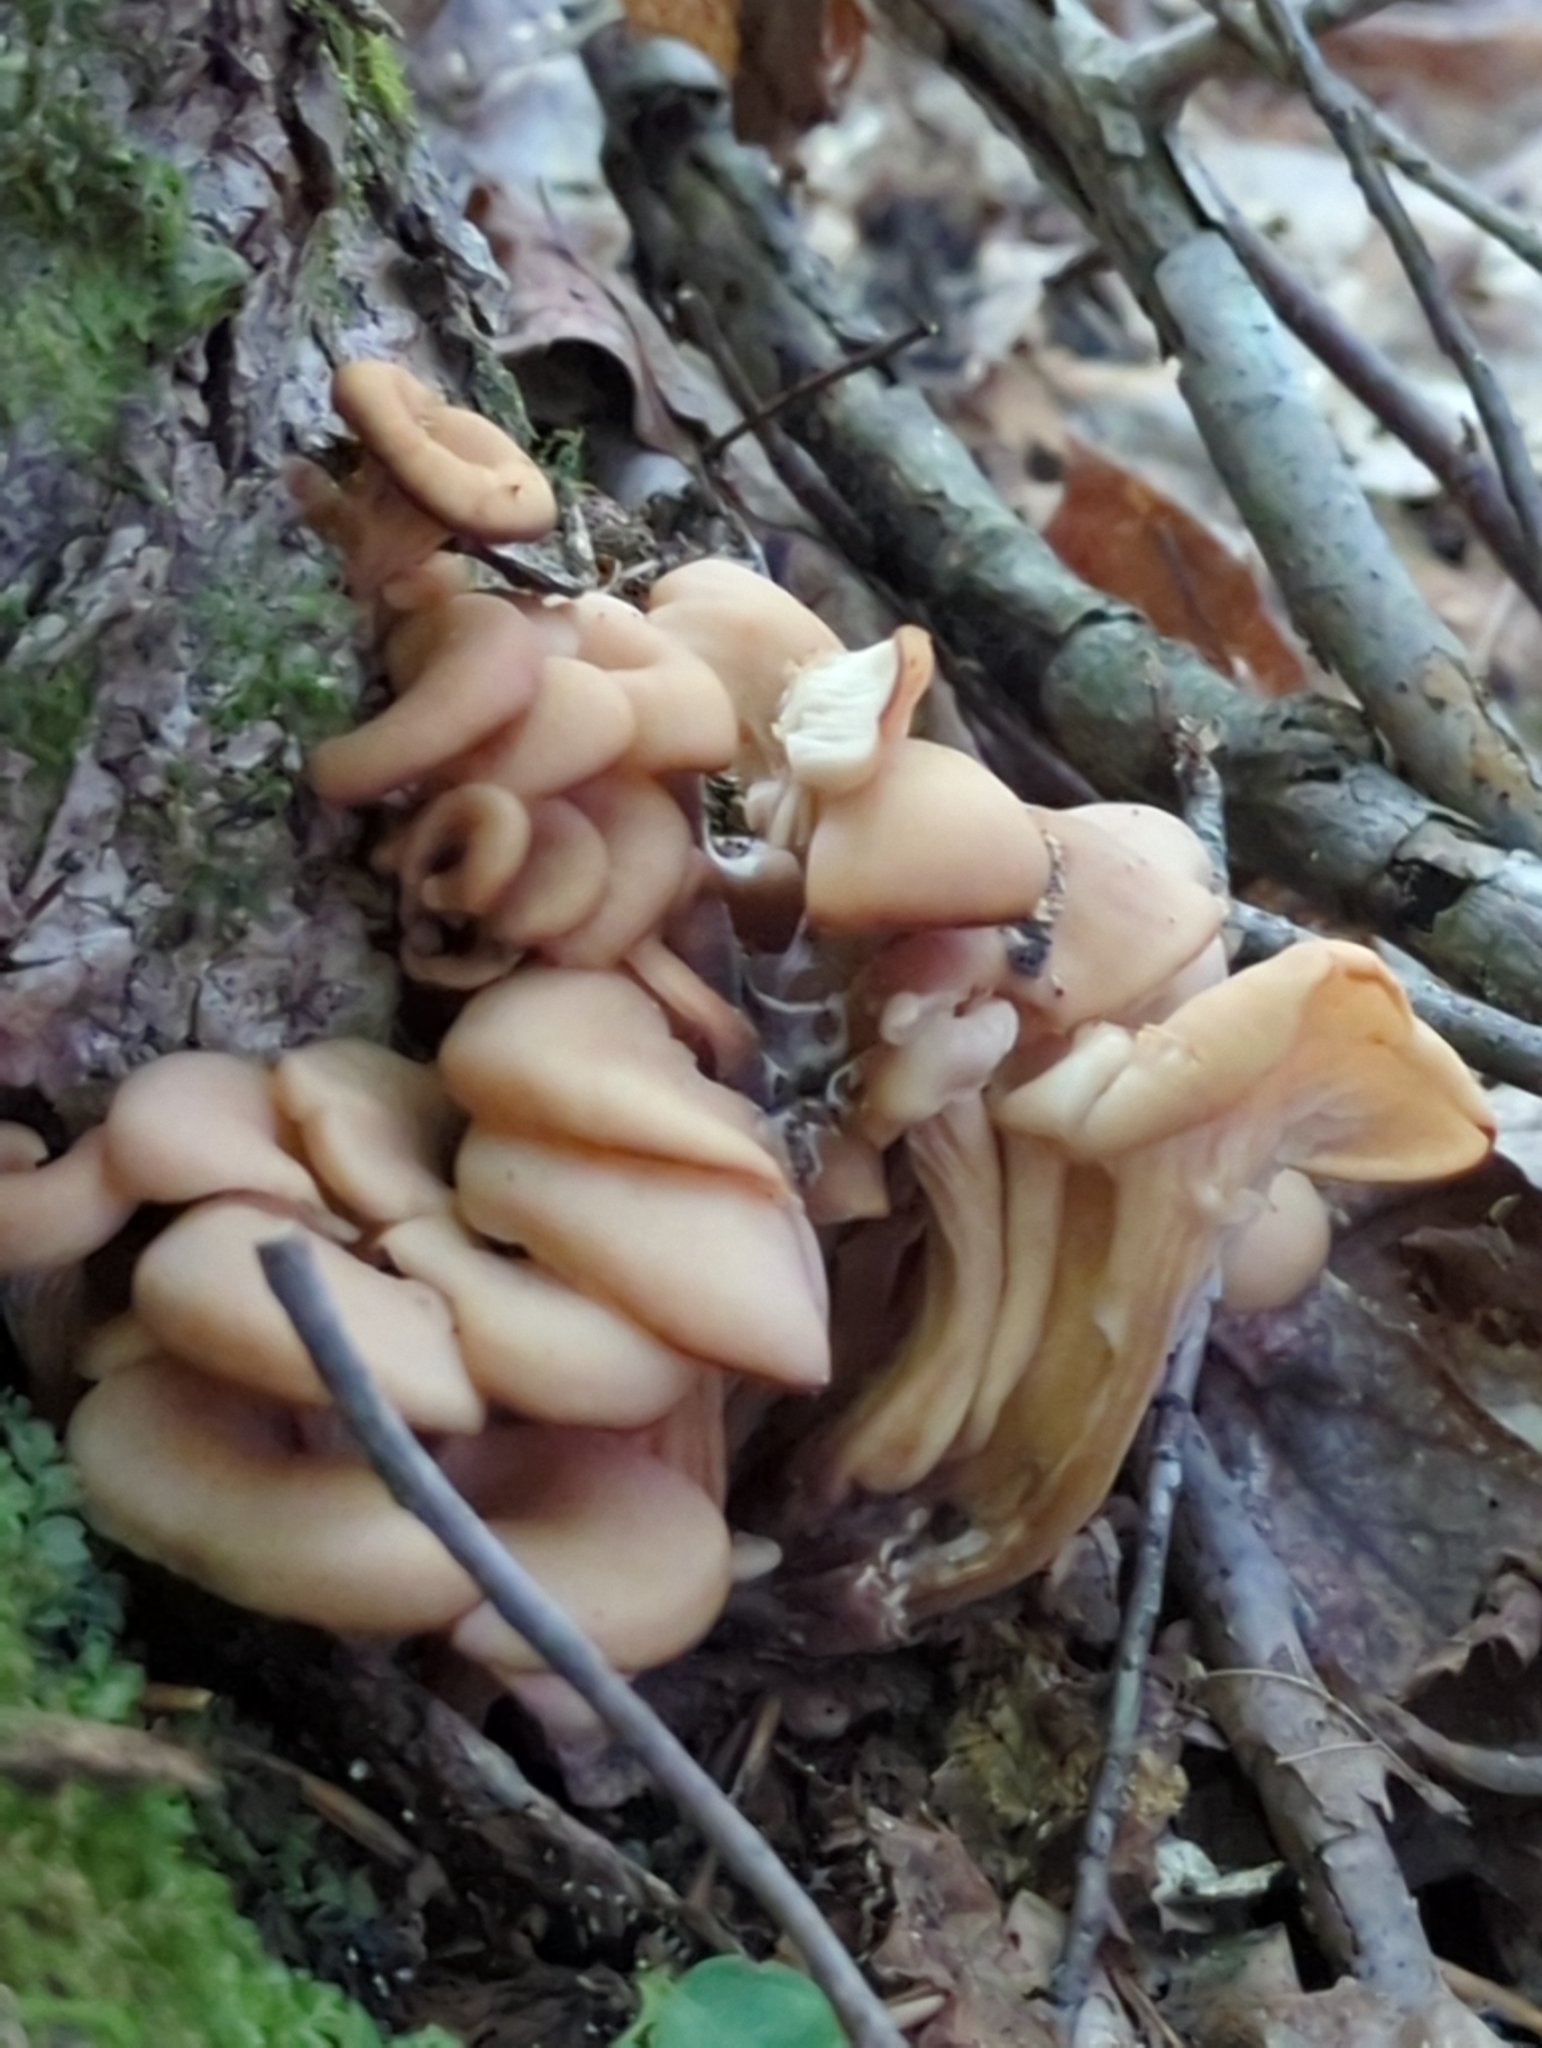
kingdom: Fungi
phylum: Basidiomycota
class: Agaricomycetes
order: Russulales
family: Auriscalpiaceae
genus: Lentinellus
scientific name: Lentinellus cochleatus
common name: Aniseed cockleshell
